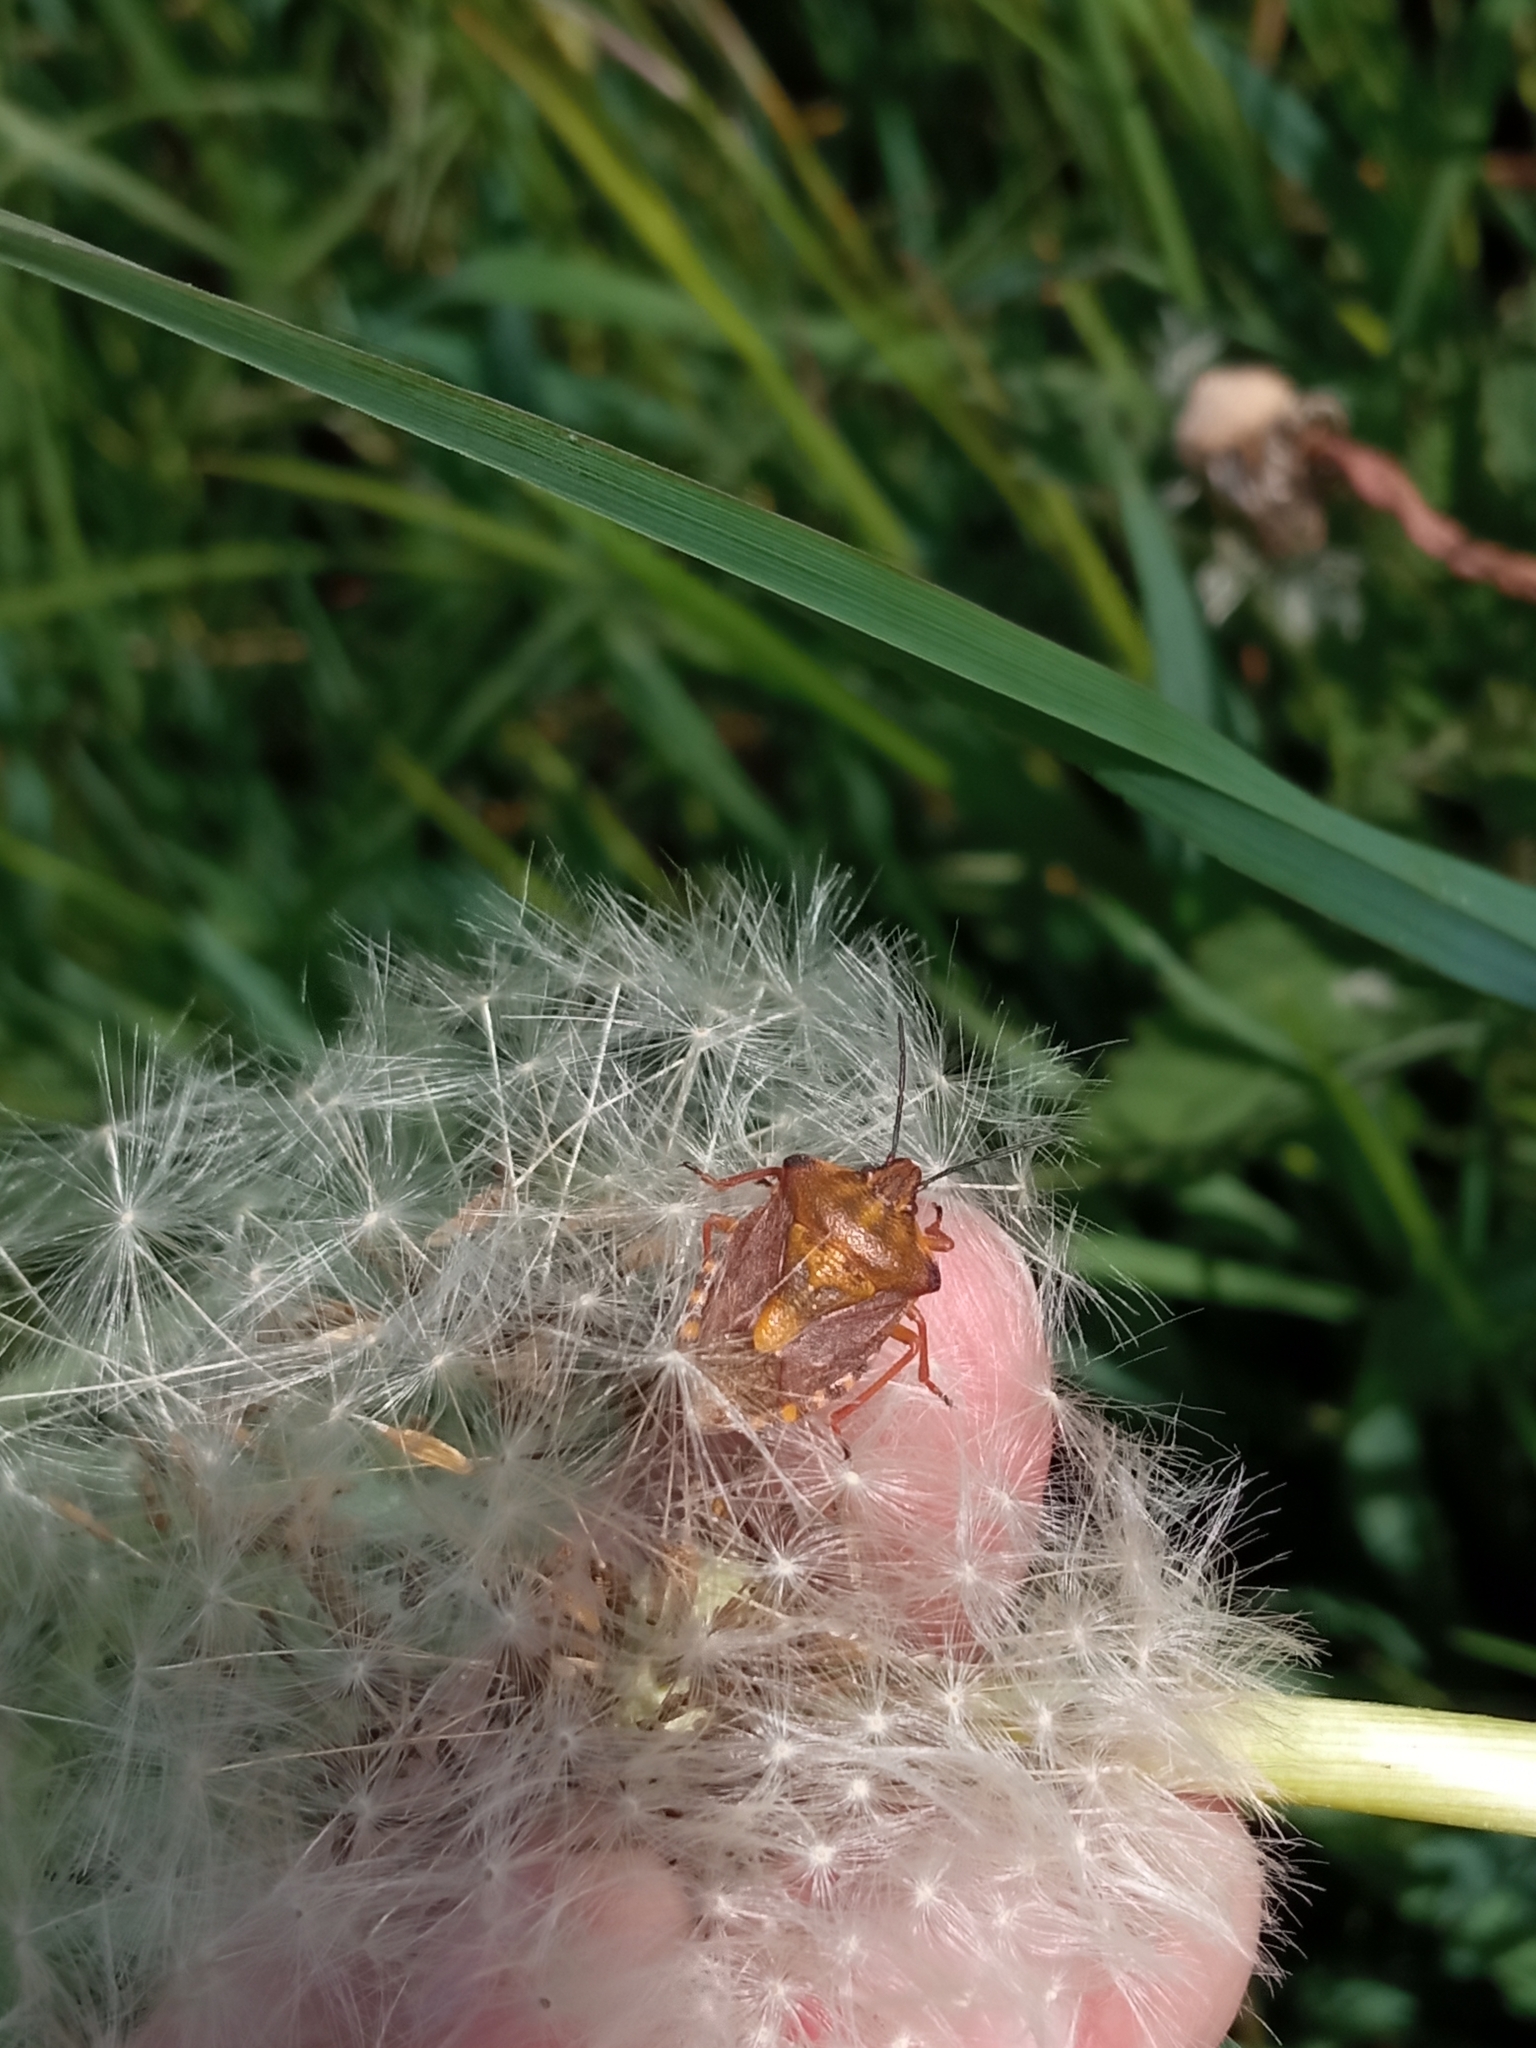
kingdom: Animalia
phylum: Arthropoda
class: Insecta
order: Hemiptera
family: Pentatomidae
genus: Carpocoris
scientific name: Carpocoris purpureipennis
